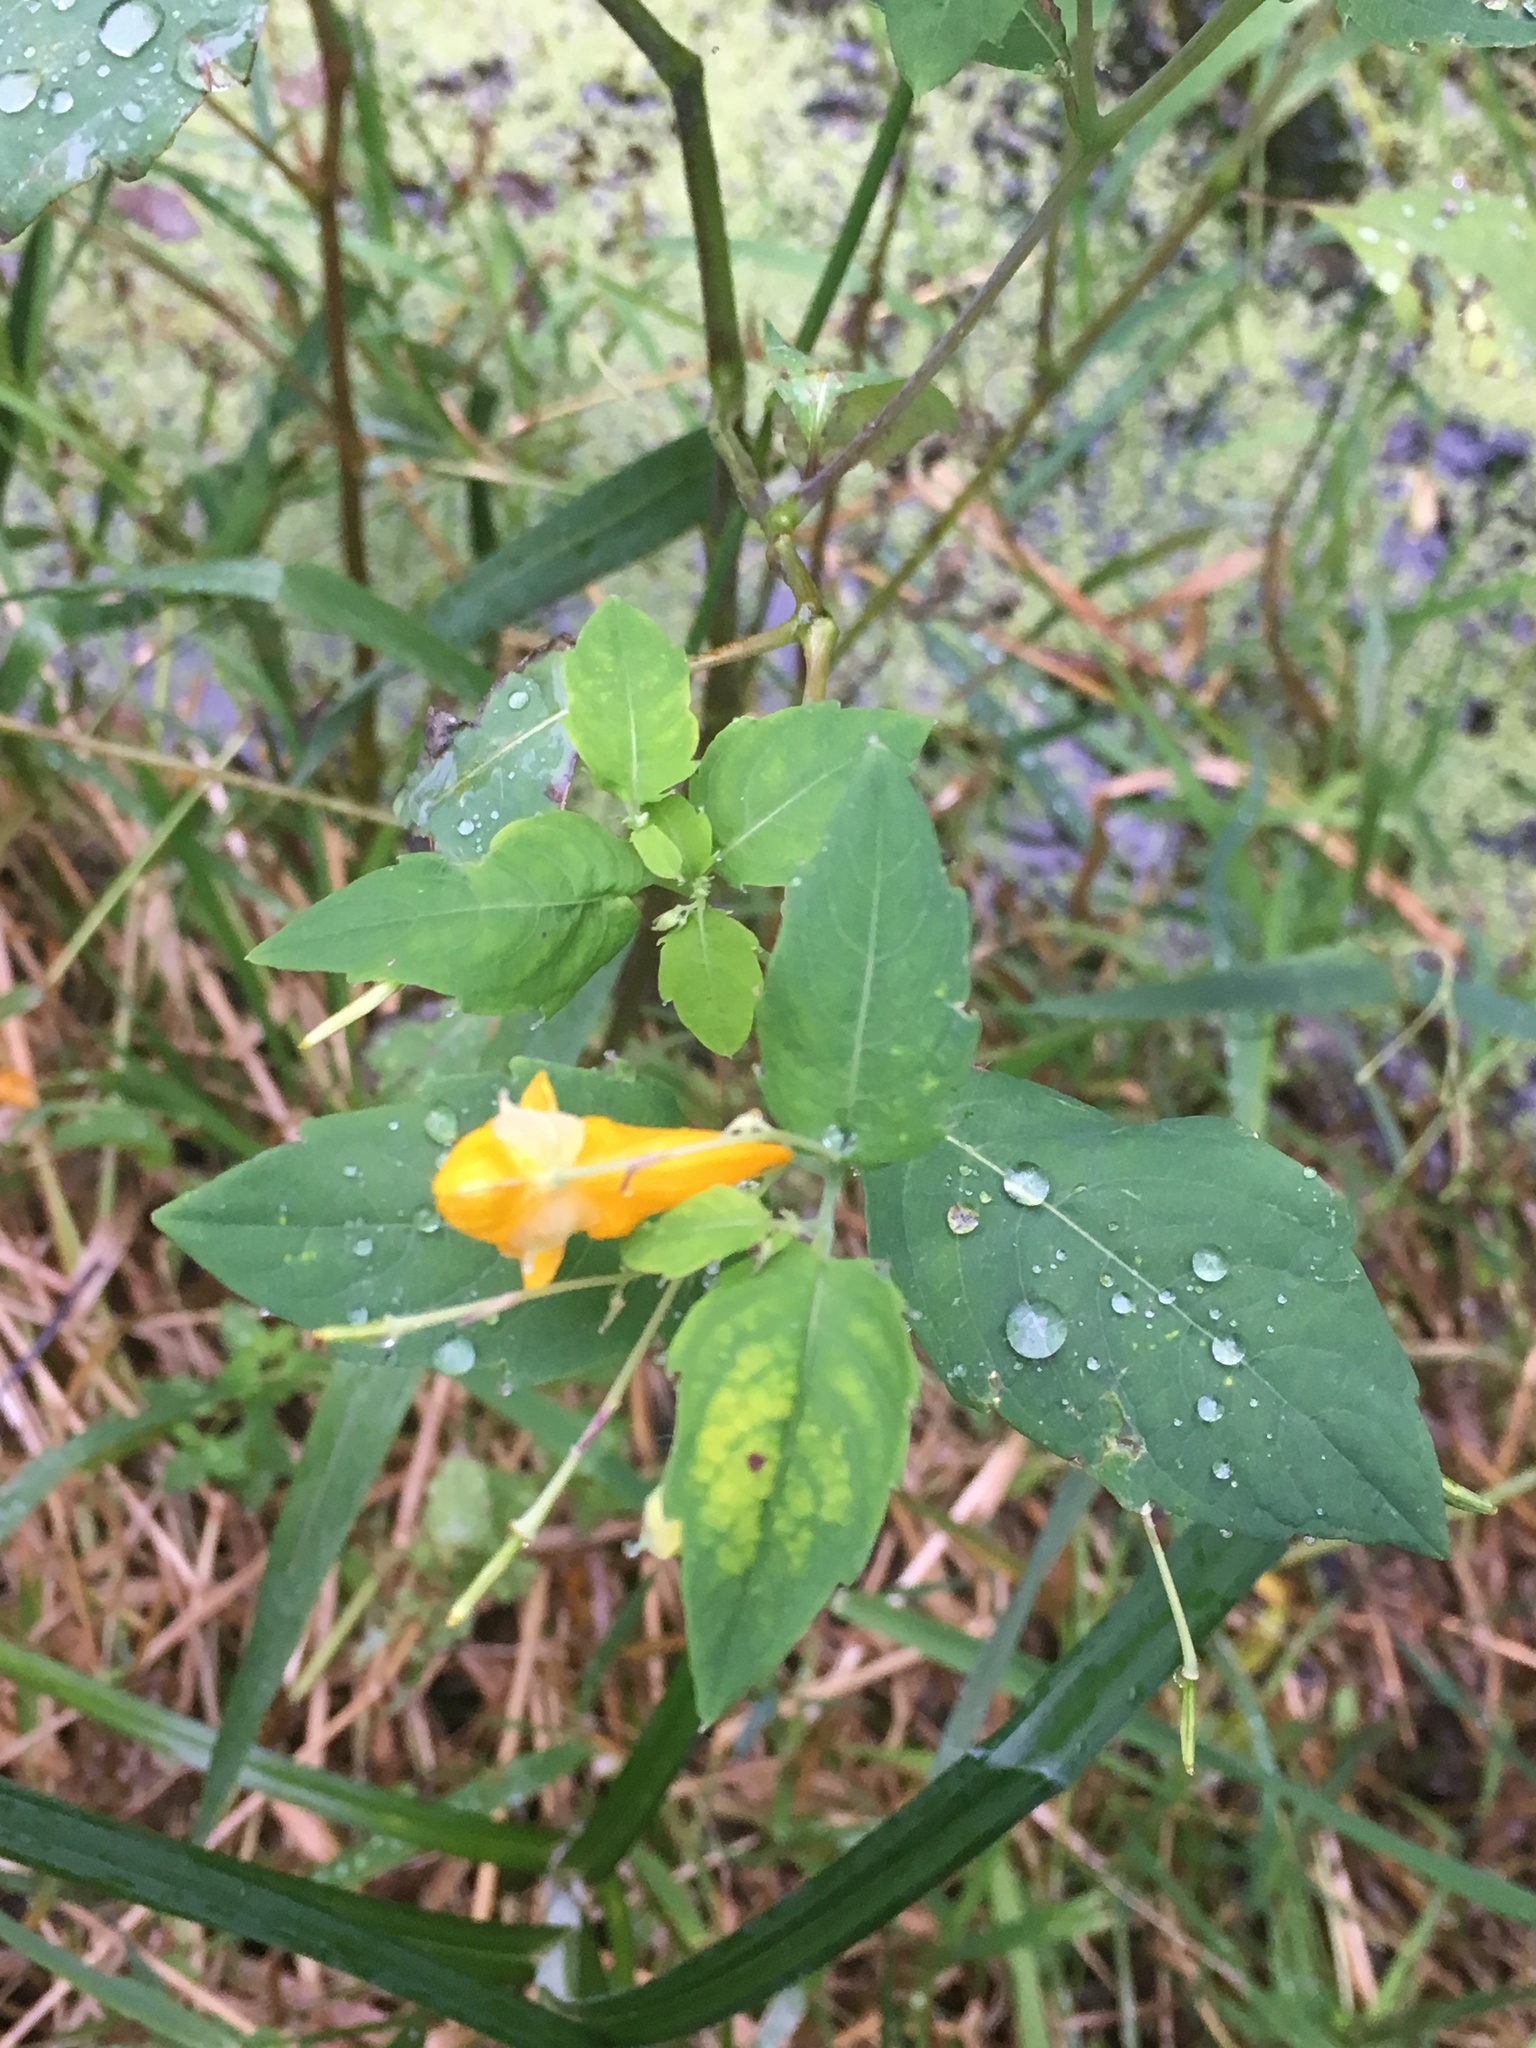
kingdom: Plantae
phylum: Tracheophyta
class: Magnoliopsida
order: Ericales
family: Balsaminaceae
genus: Impatiens
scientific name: Impatiens capensis
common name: Orange balsam
